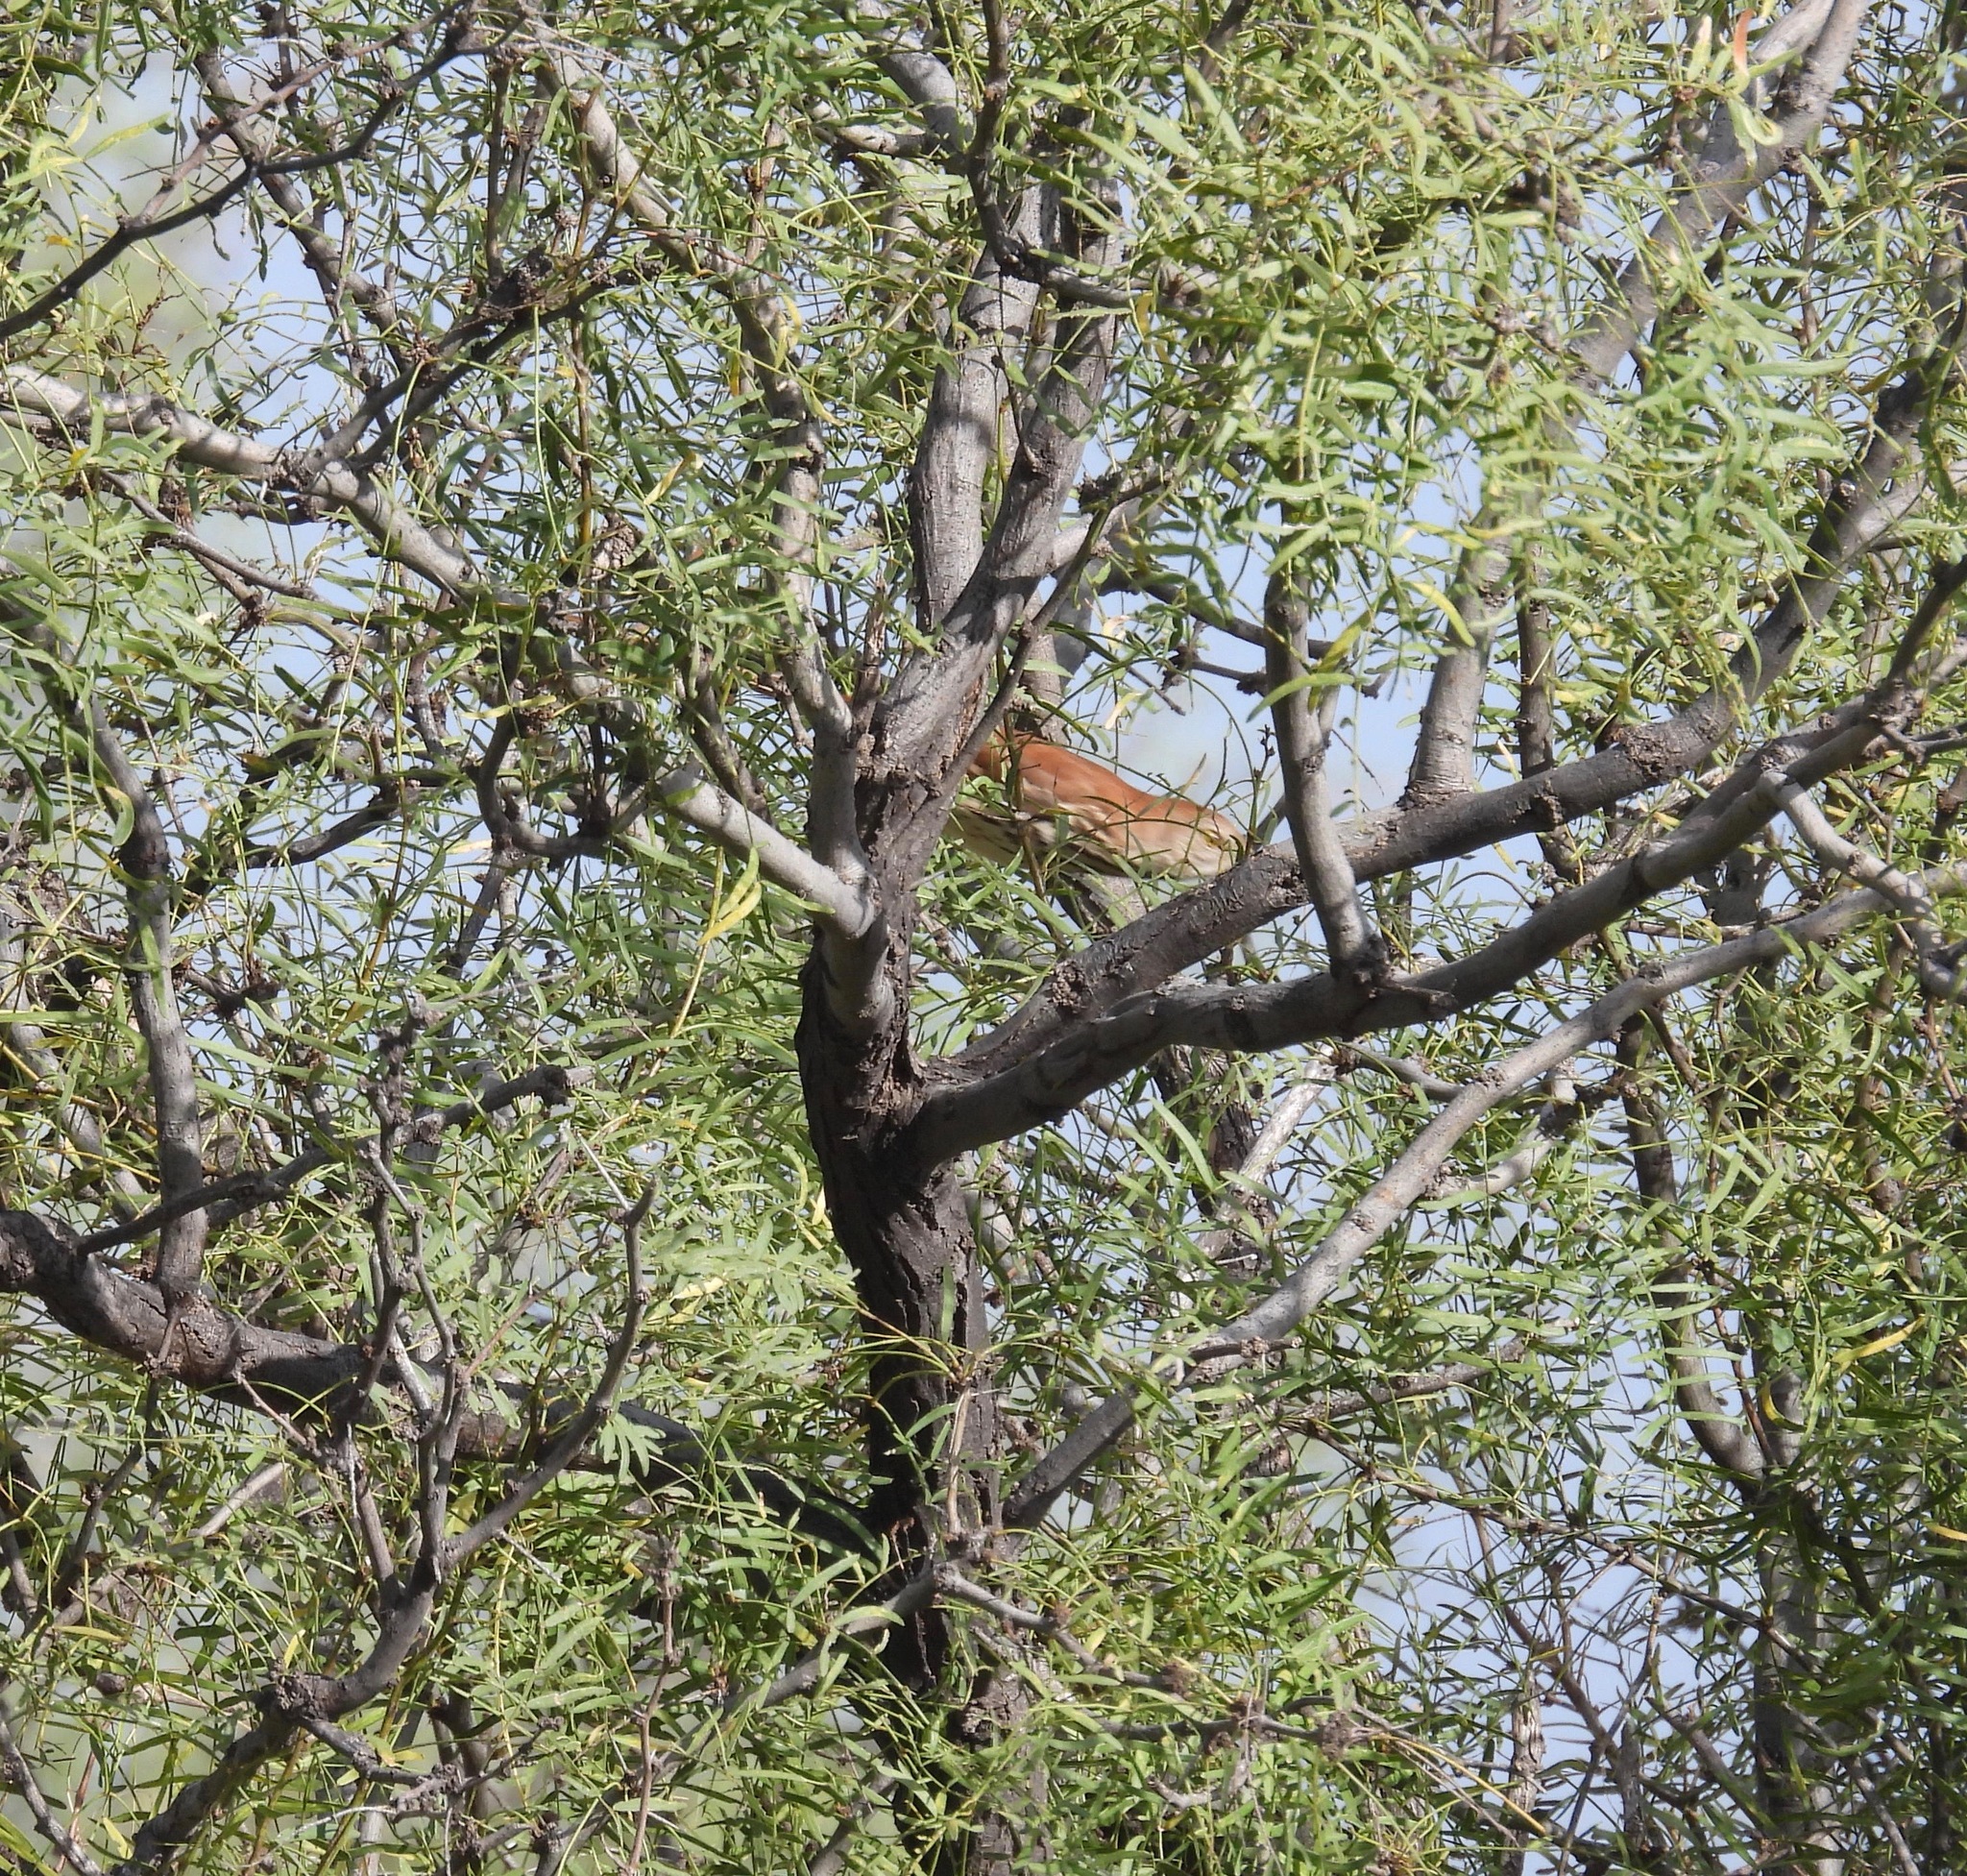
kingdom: Animalia
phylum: Chordata
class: Aves
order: Passeriformes
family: Mimidae
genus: Toxostoma
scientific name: Toxostoma rufum
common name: Brown thrasher
